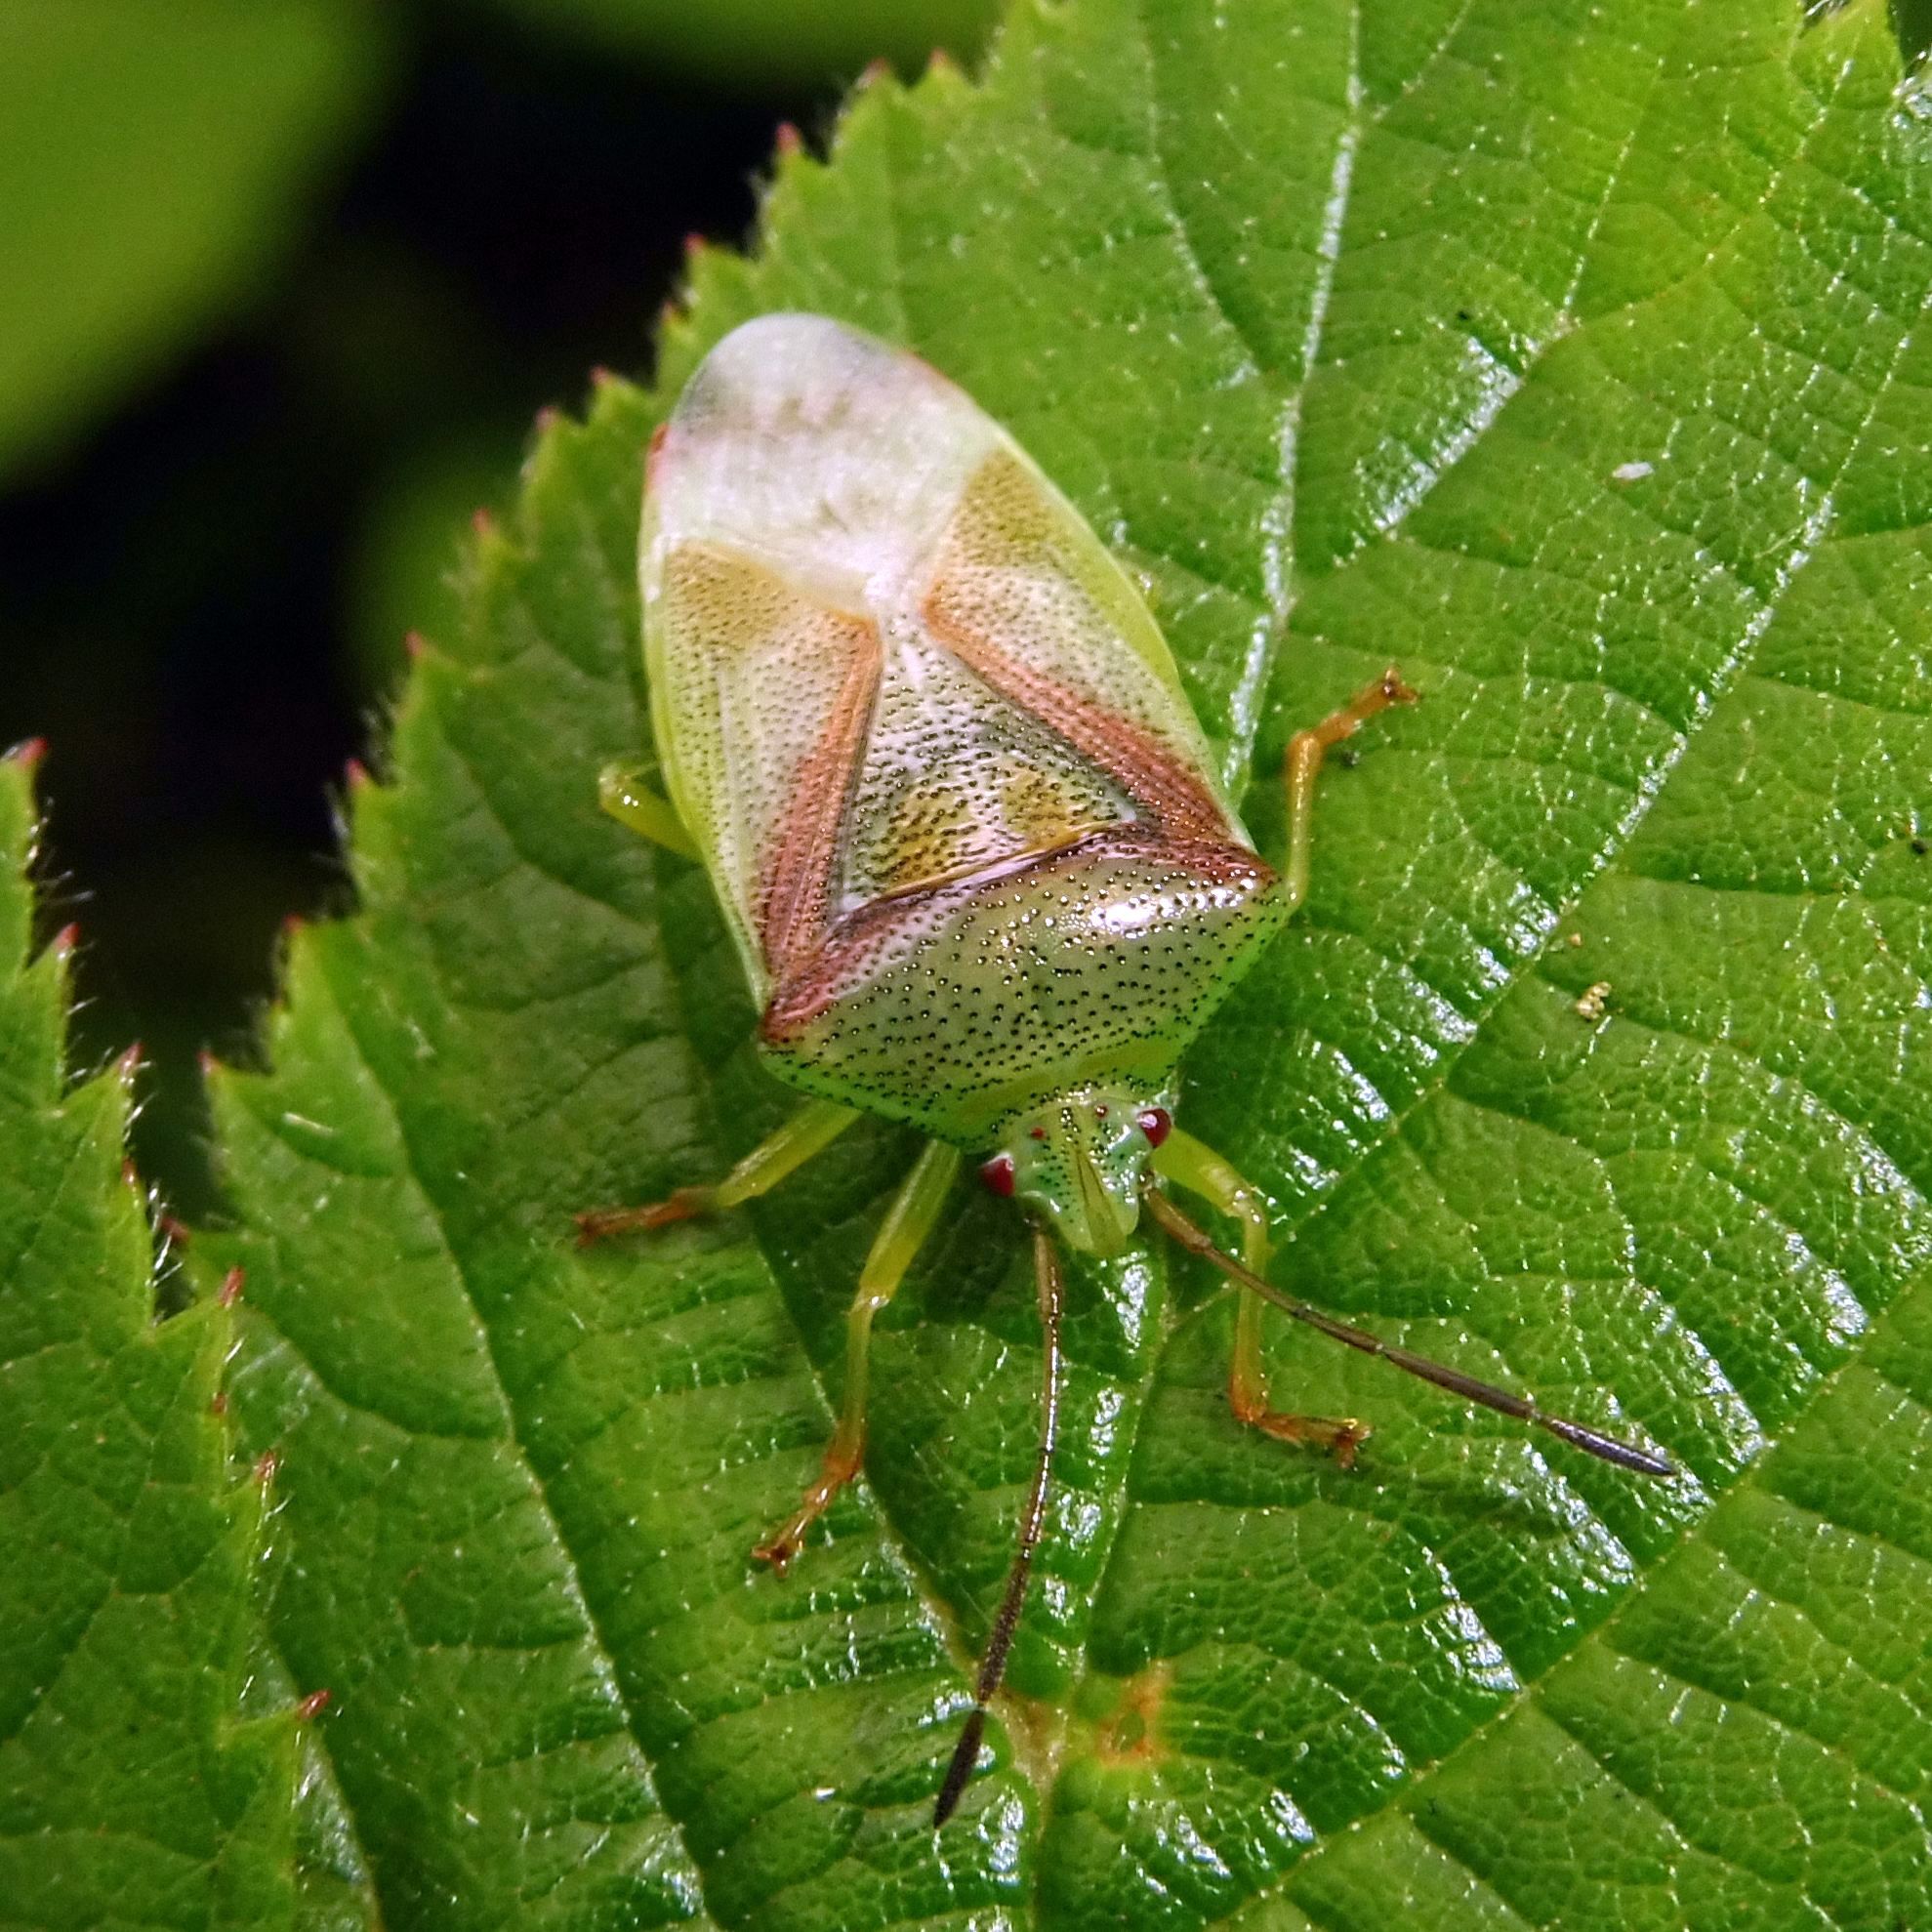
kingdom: Animalia
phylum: Arthropoda
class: Insecta
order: Hemiptera
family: Acanthosomatidae
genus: Elasmostethus
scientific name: Elasmostethus interstinctus
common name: Birch shieldbug
